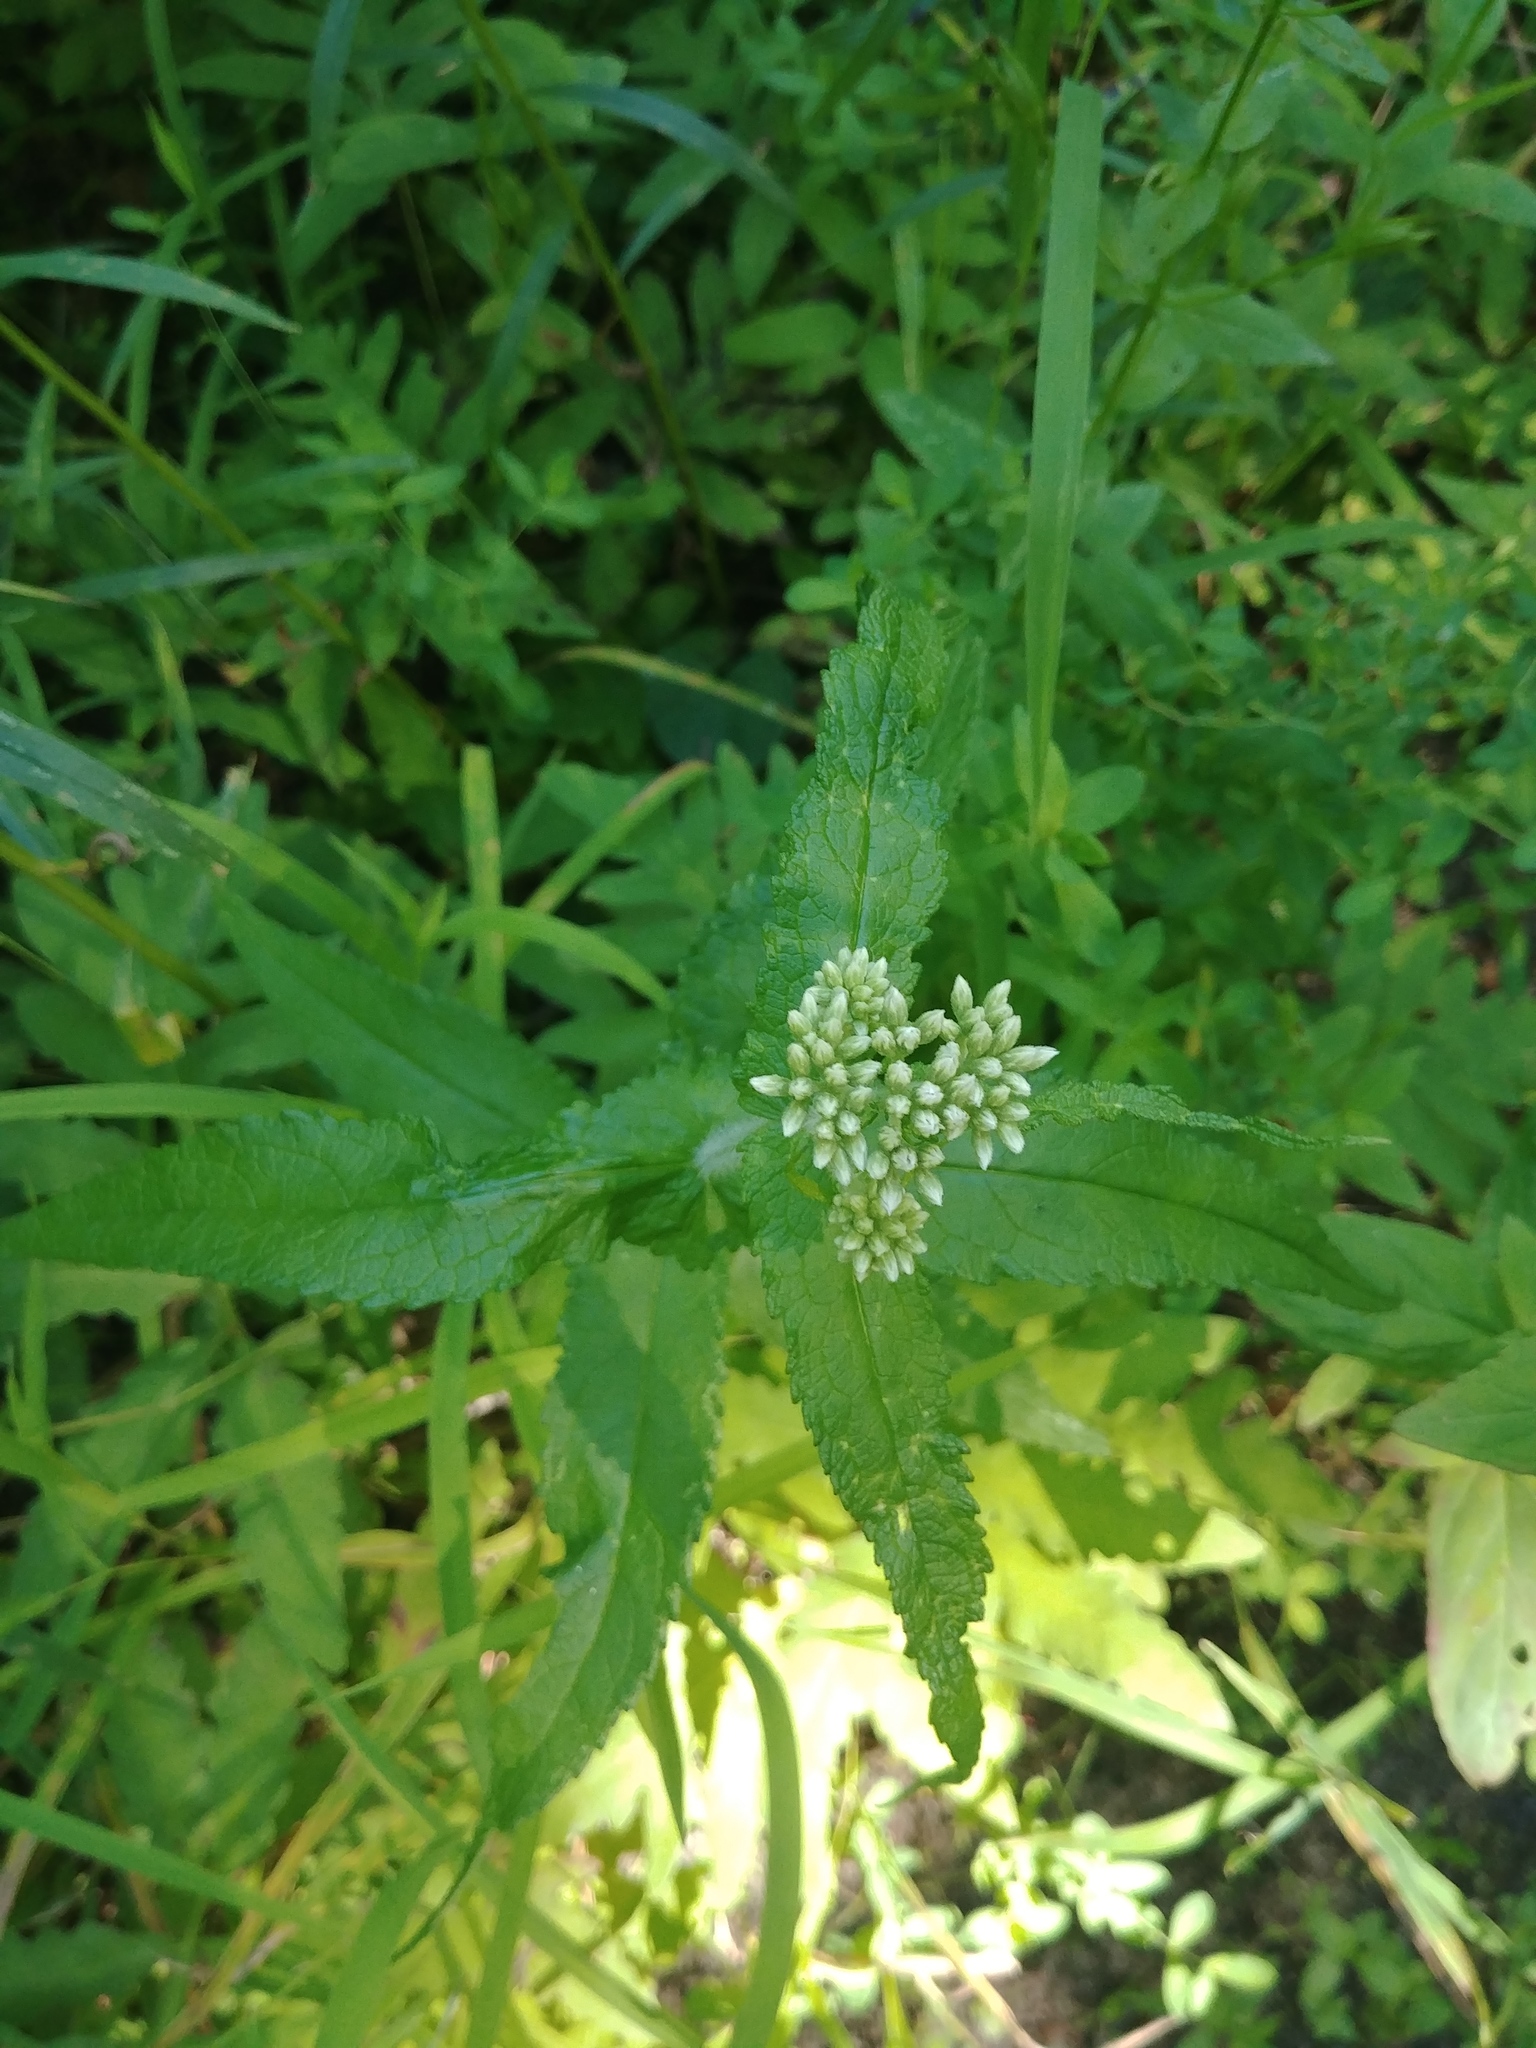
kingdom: Plantae
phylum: Tracheophyta
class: Magnoliopsida
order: Asterales
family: Asteraceae
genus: Eupatorium
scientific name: Eupatorium perfoliatum
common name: Boneset
